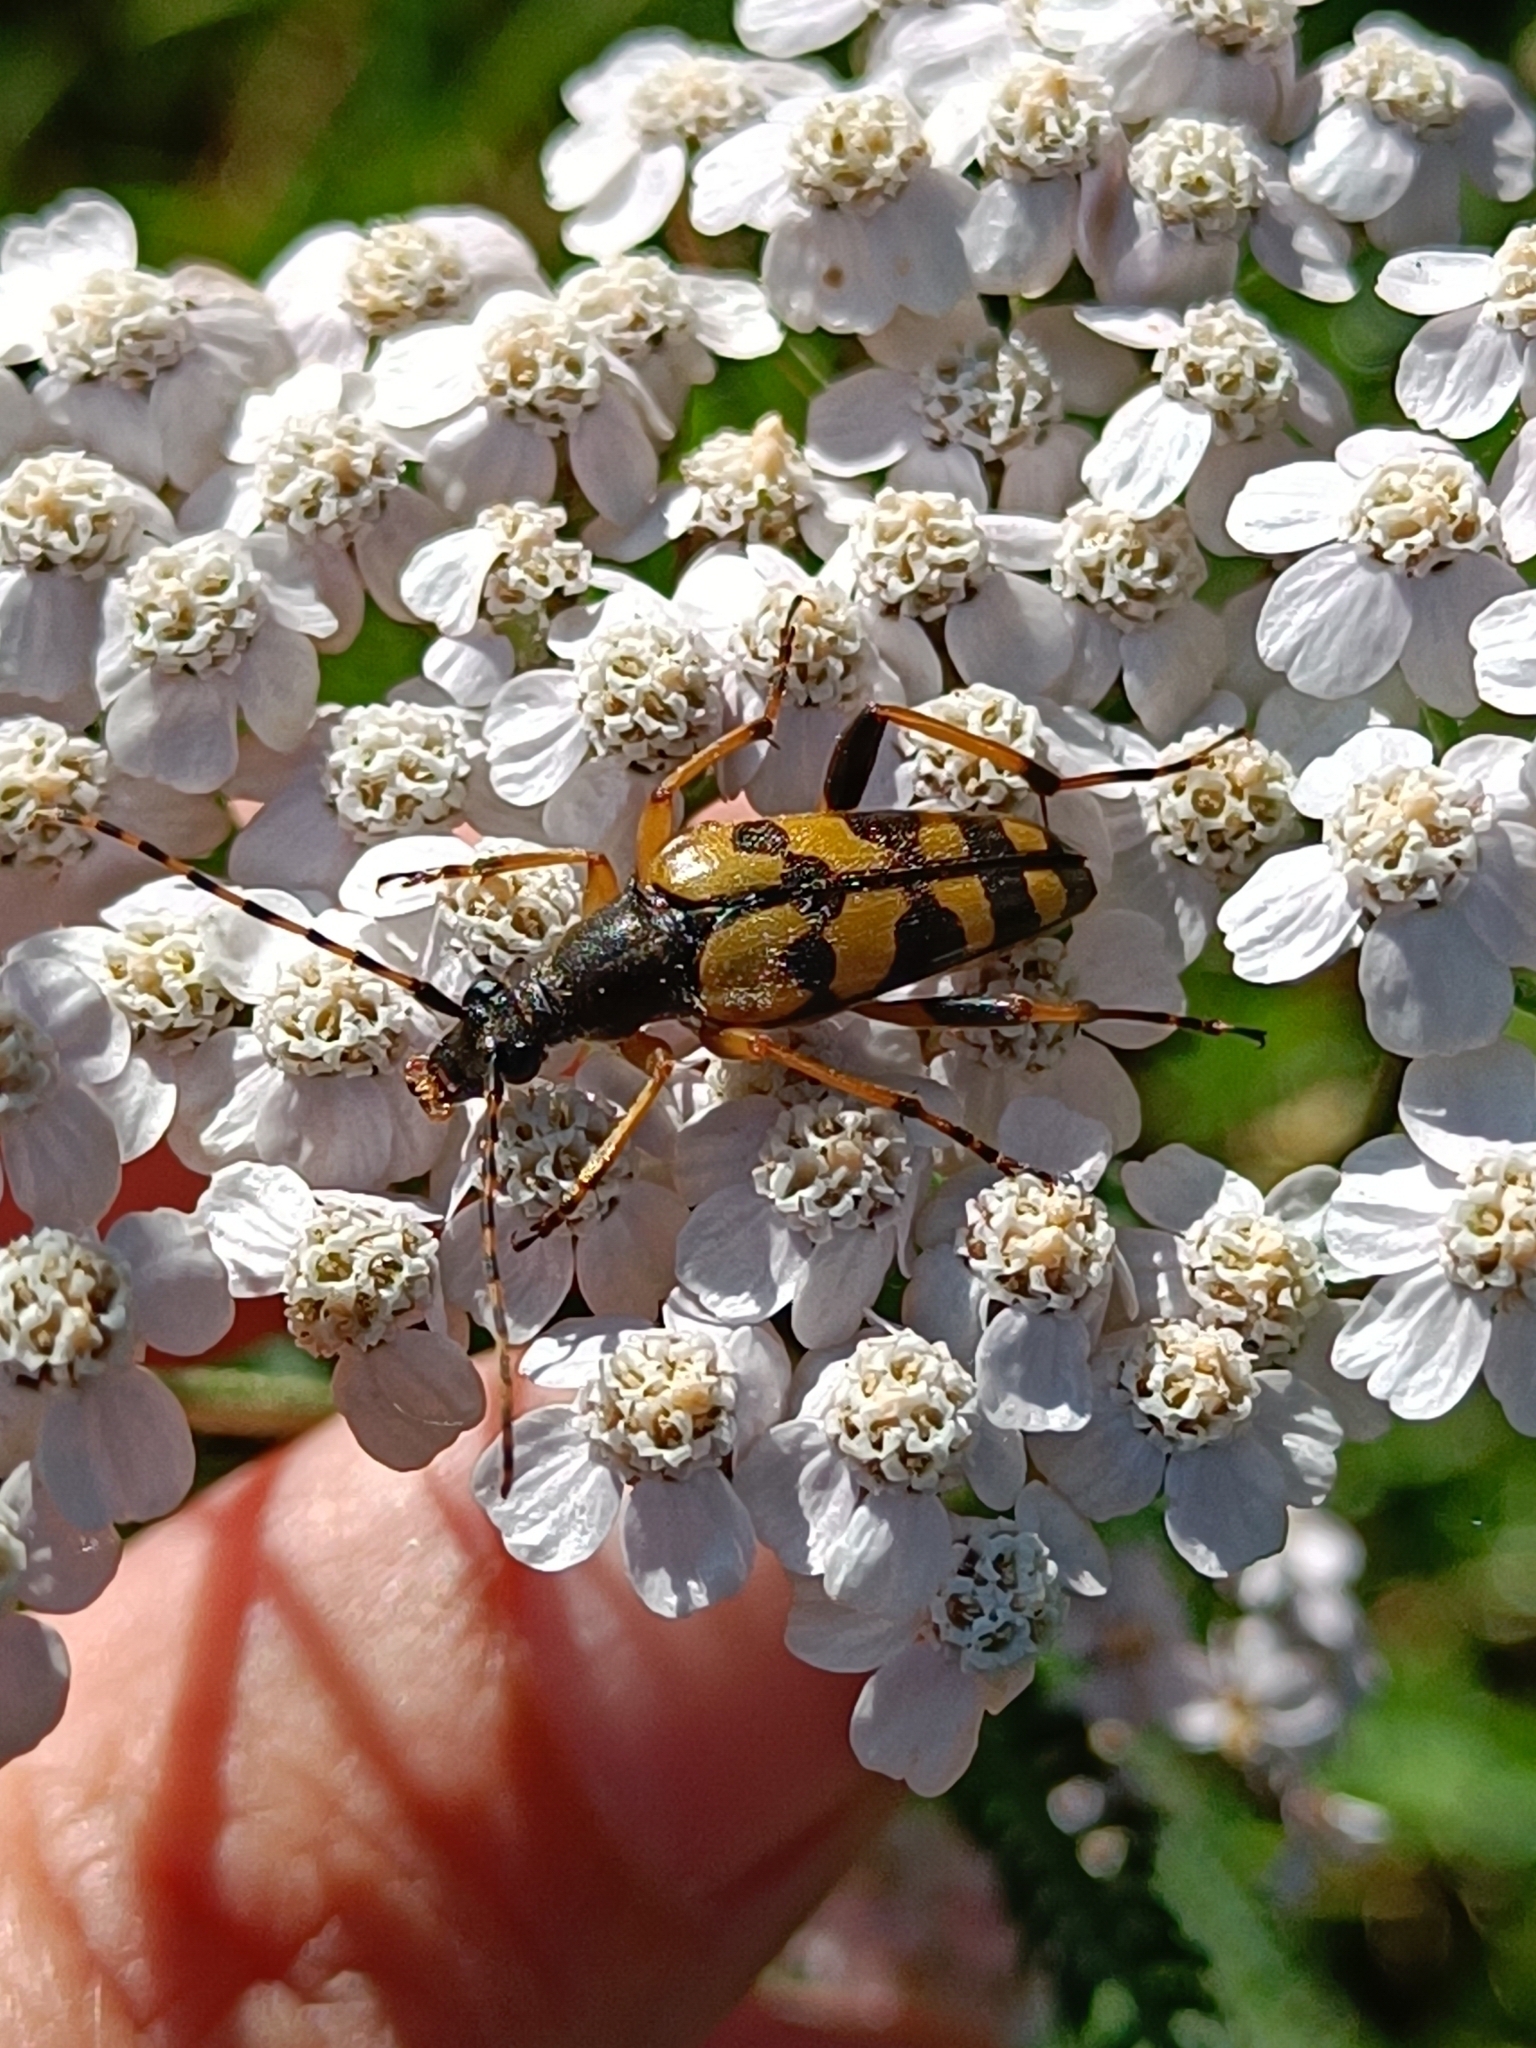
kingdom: Animalia
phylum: Arthropoda
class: Insecta
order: Coleoptera
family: Cerambycidae
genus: Rutpela
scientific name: Rutpela maculata
